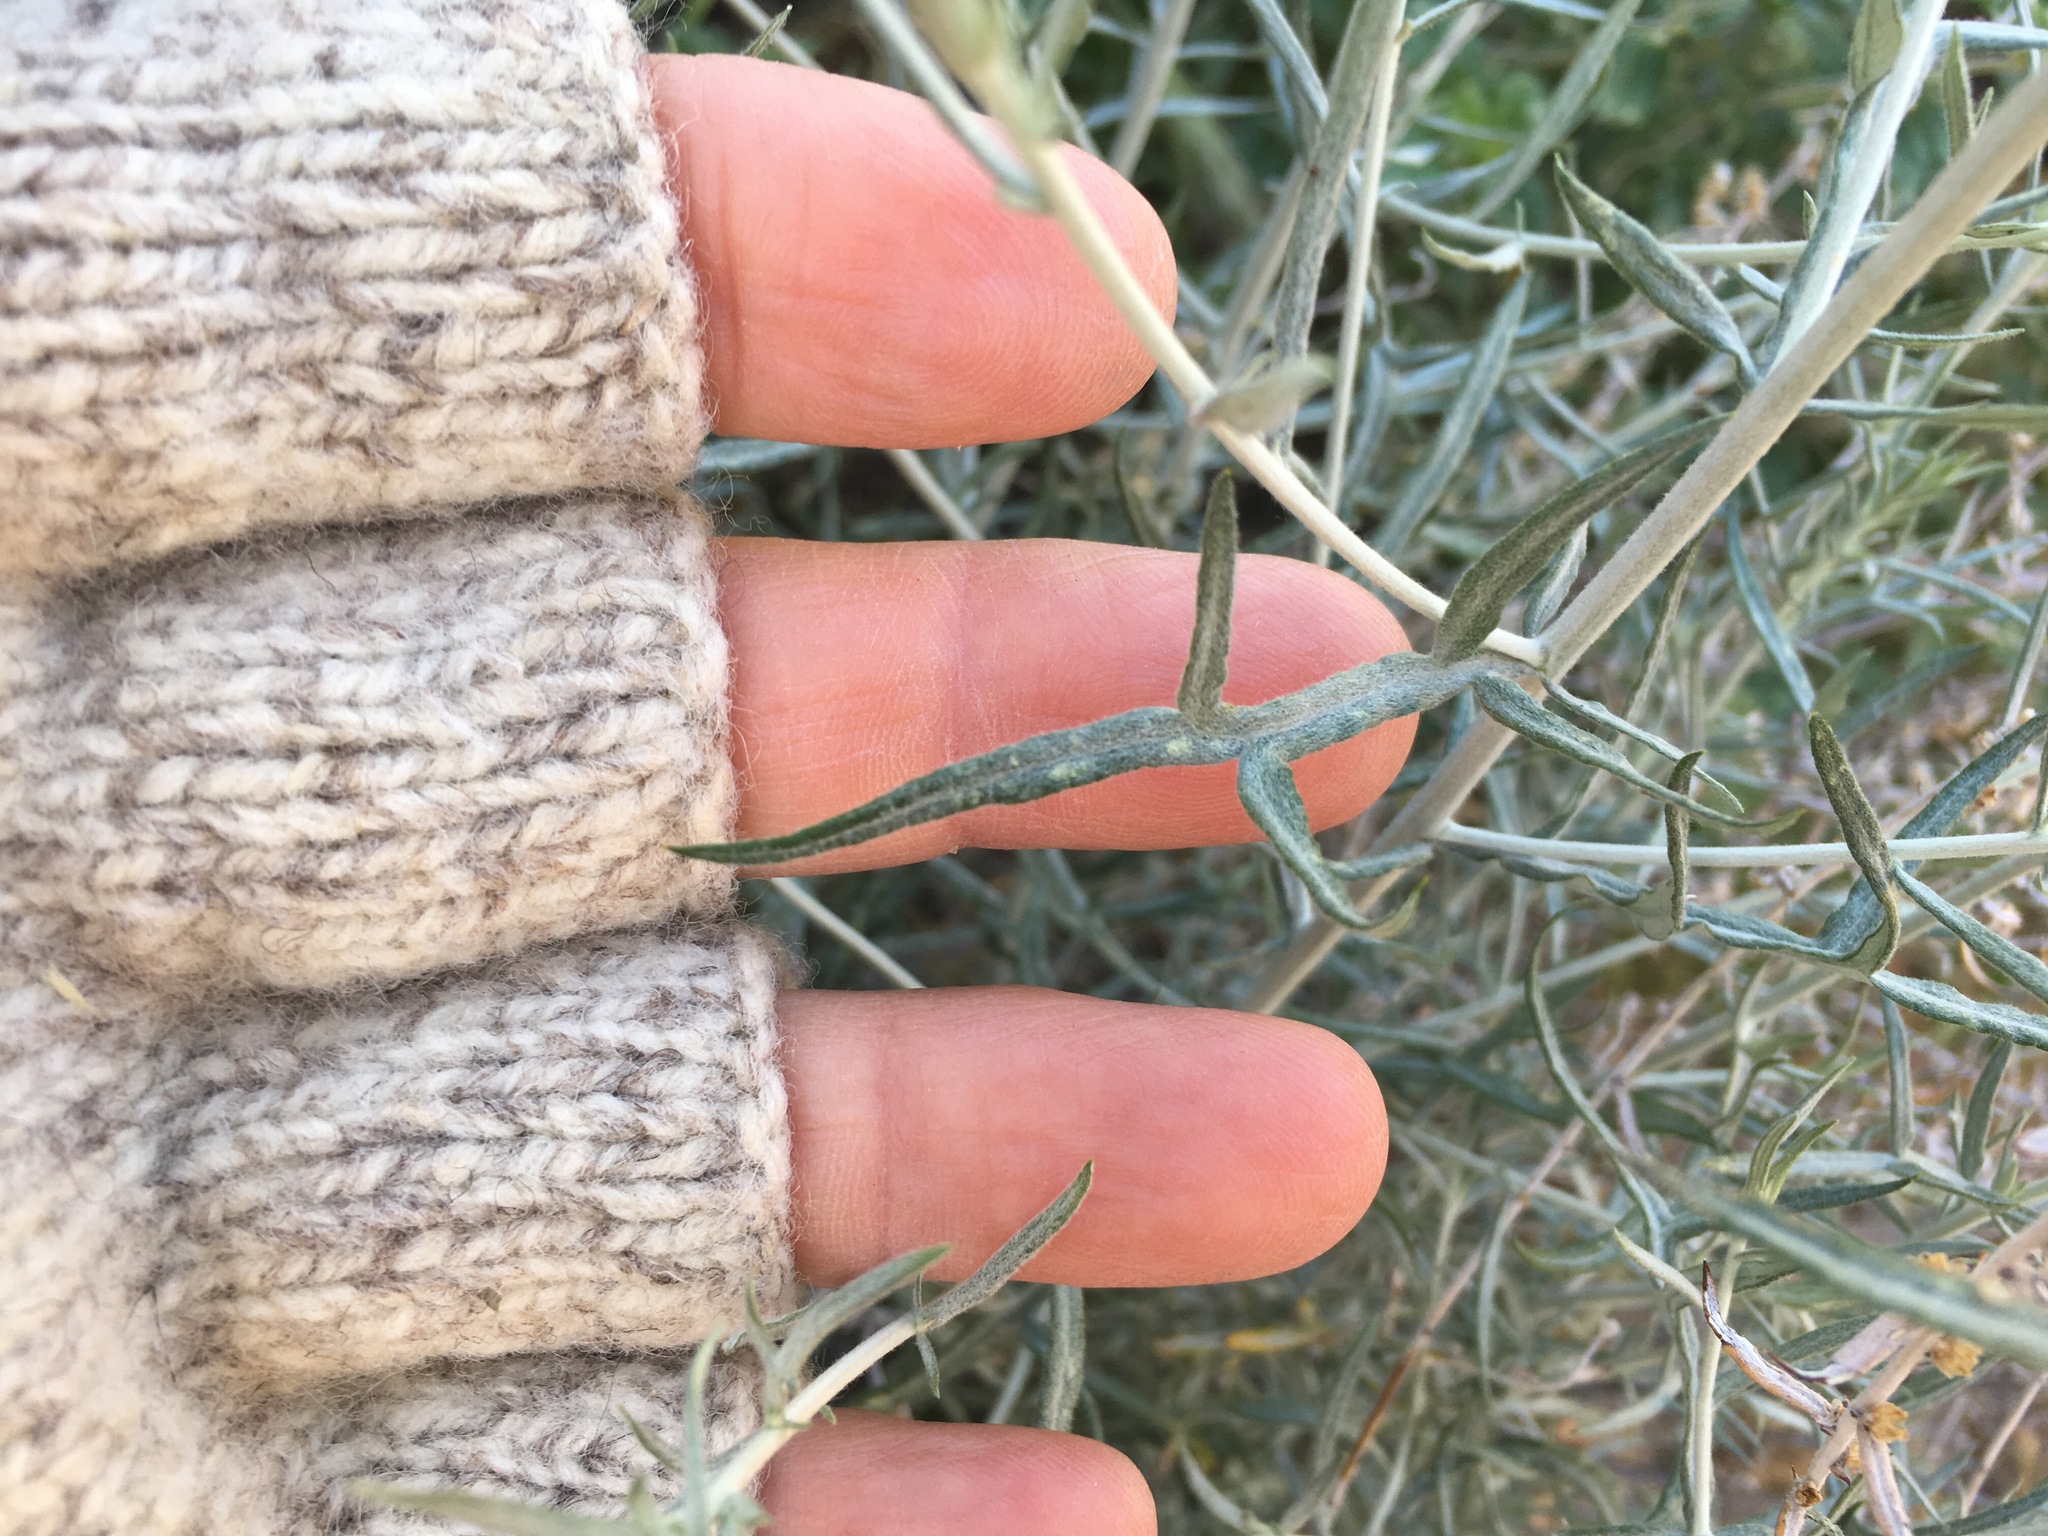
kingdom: Plantae
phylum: Tracheophyta
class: Magnoliopsida
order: Asterales
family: Asteraceae
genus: Artemisia
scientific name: Artemisia ludoviciana
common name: Western mugwort
